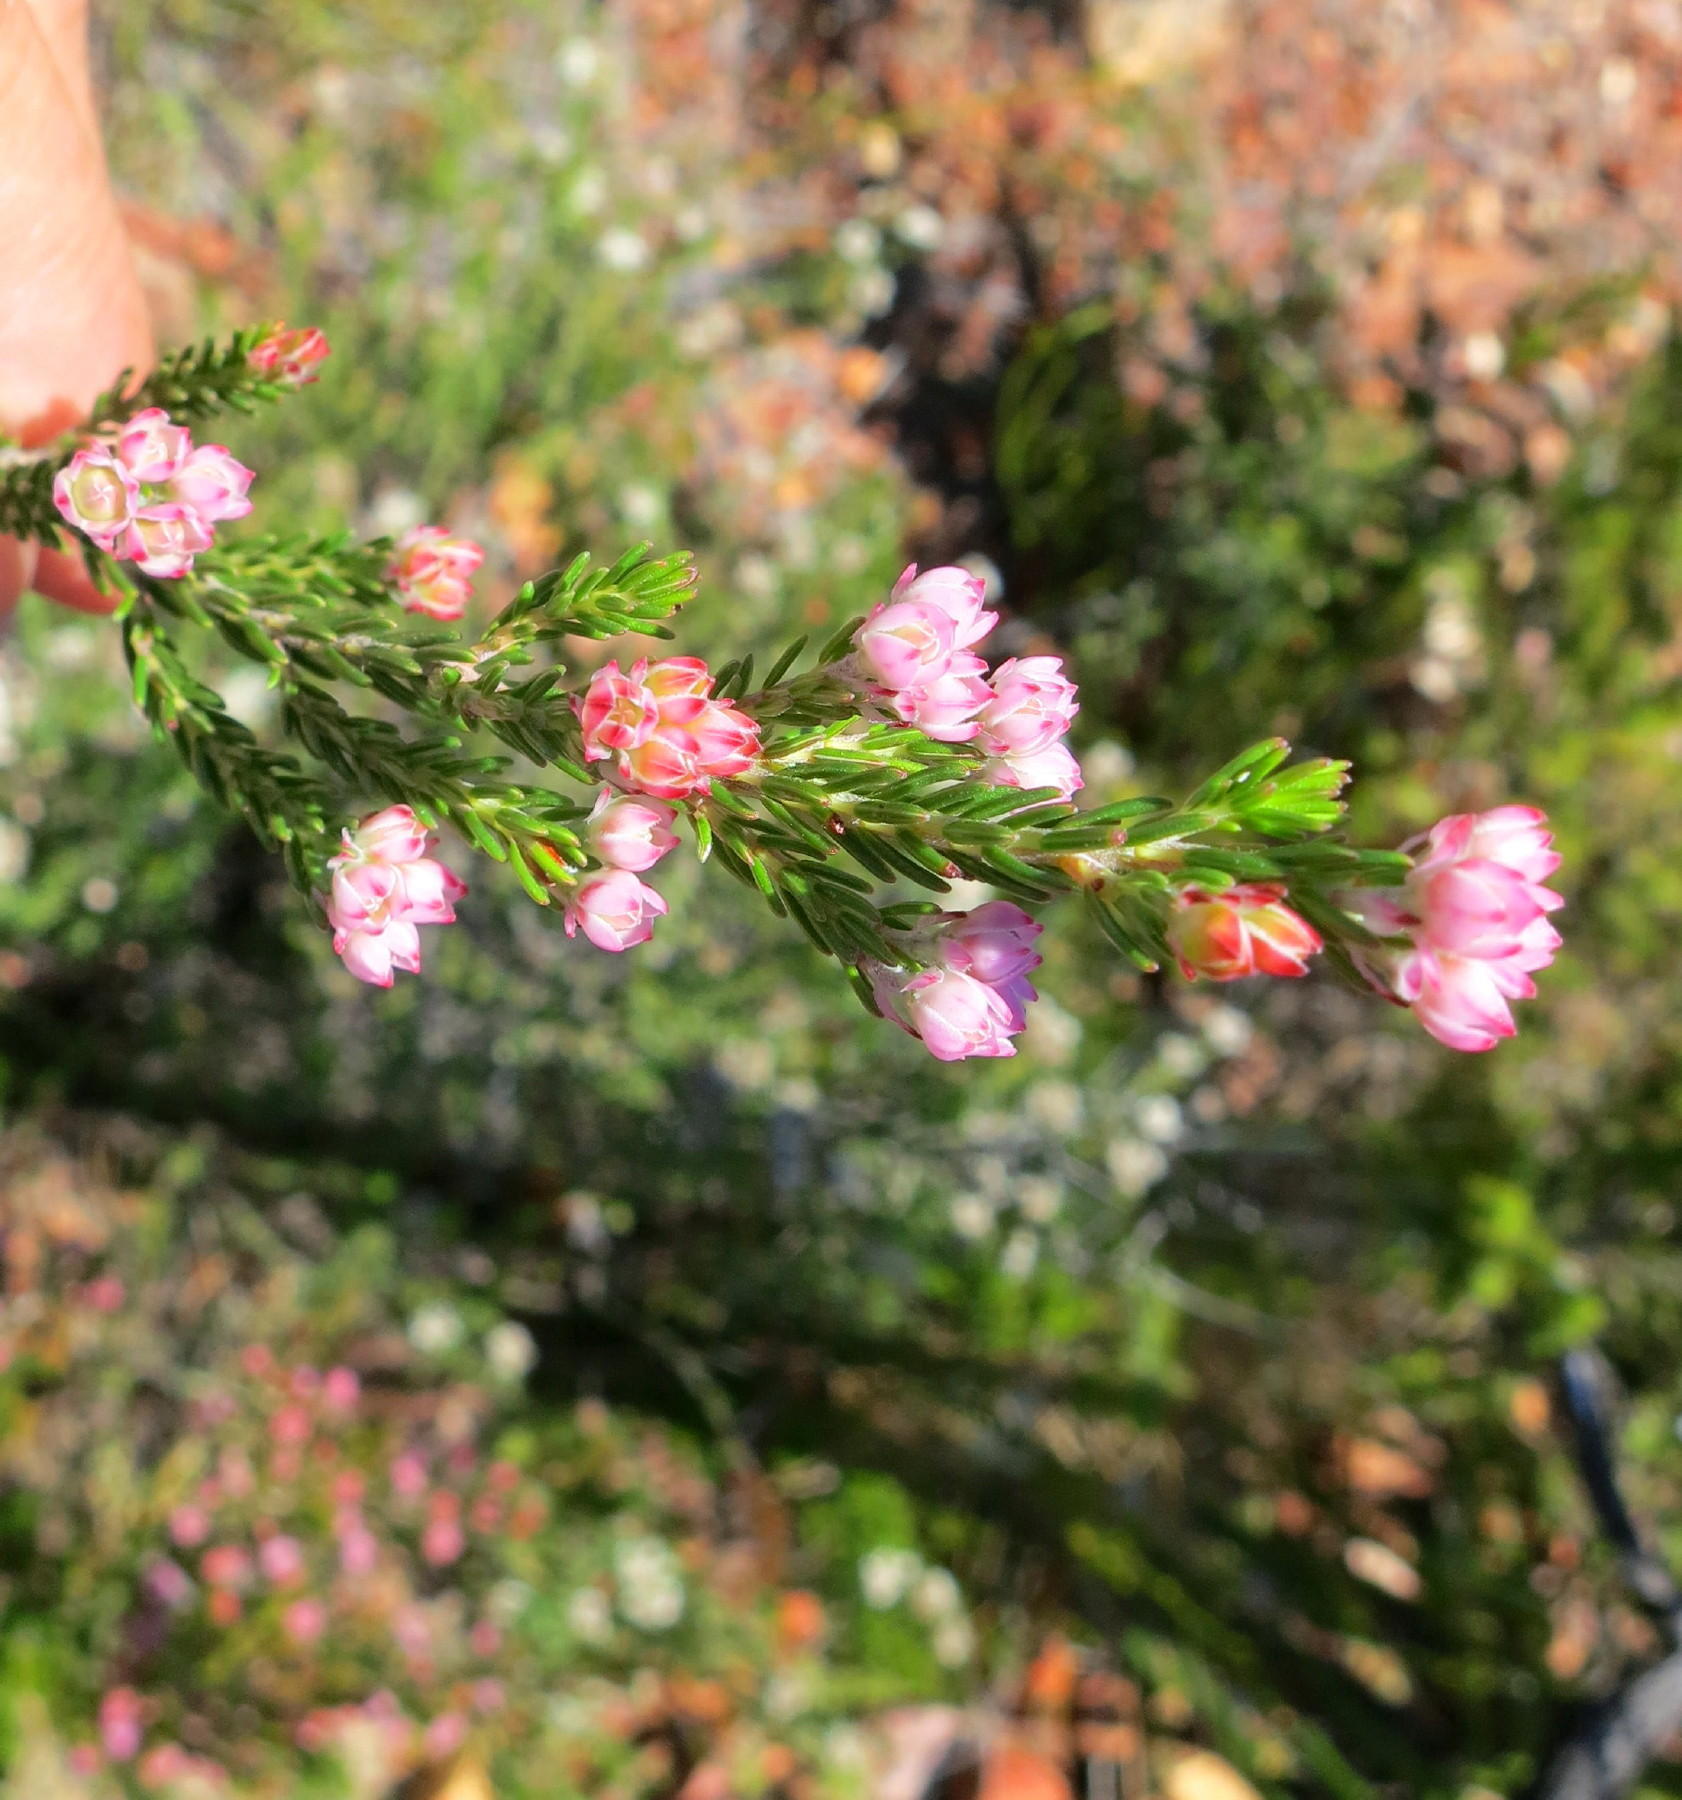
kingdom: Plantae
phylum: Tracheophyta
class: Magnoliopsida
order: Ericales
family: Ericaceae
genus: Erica
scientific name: Erica affinis
